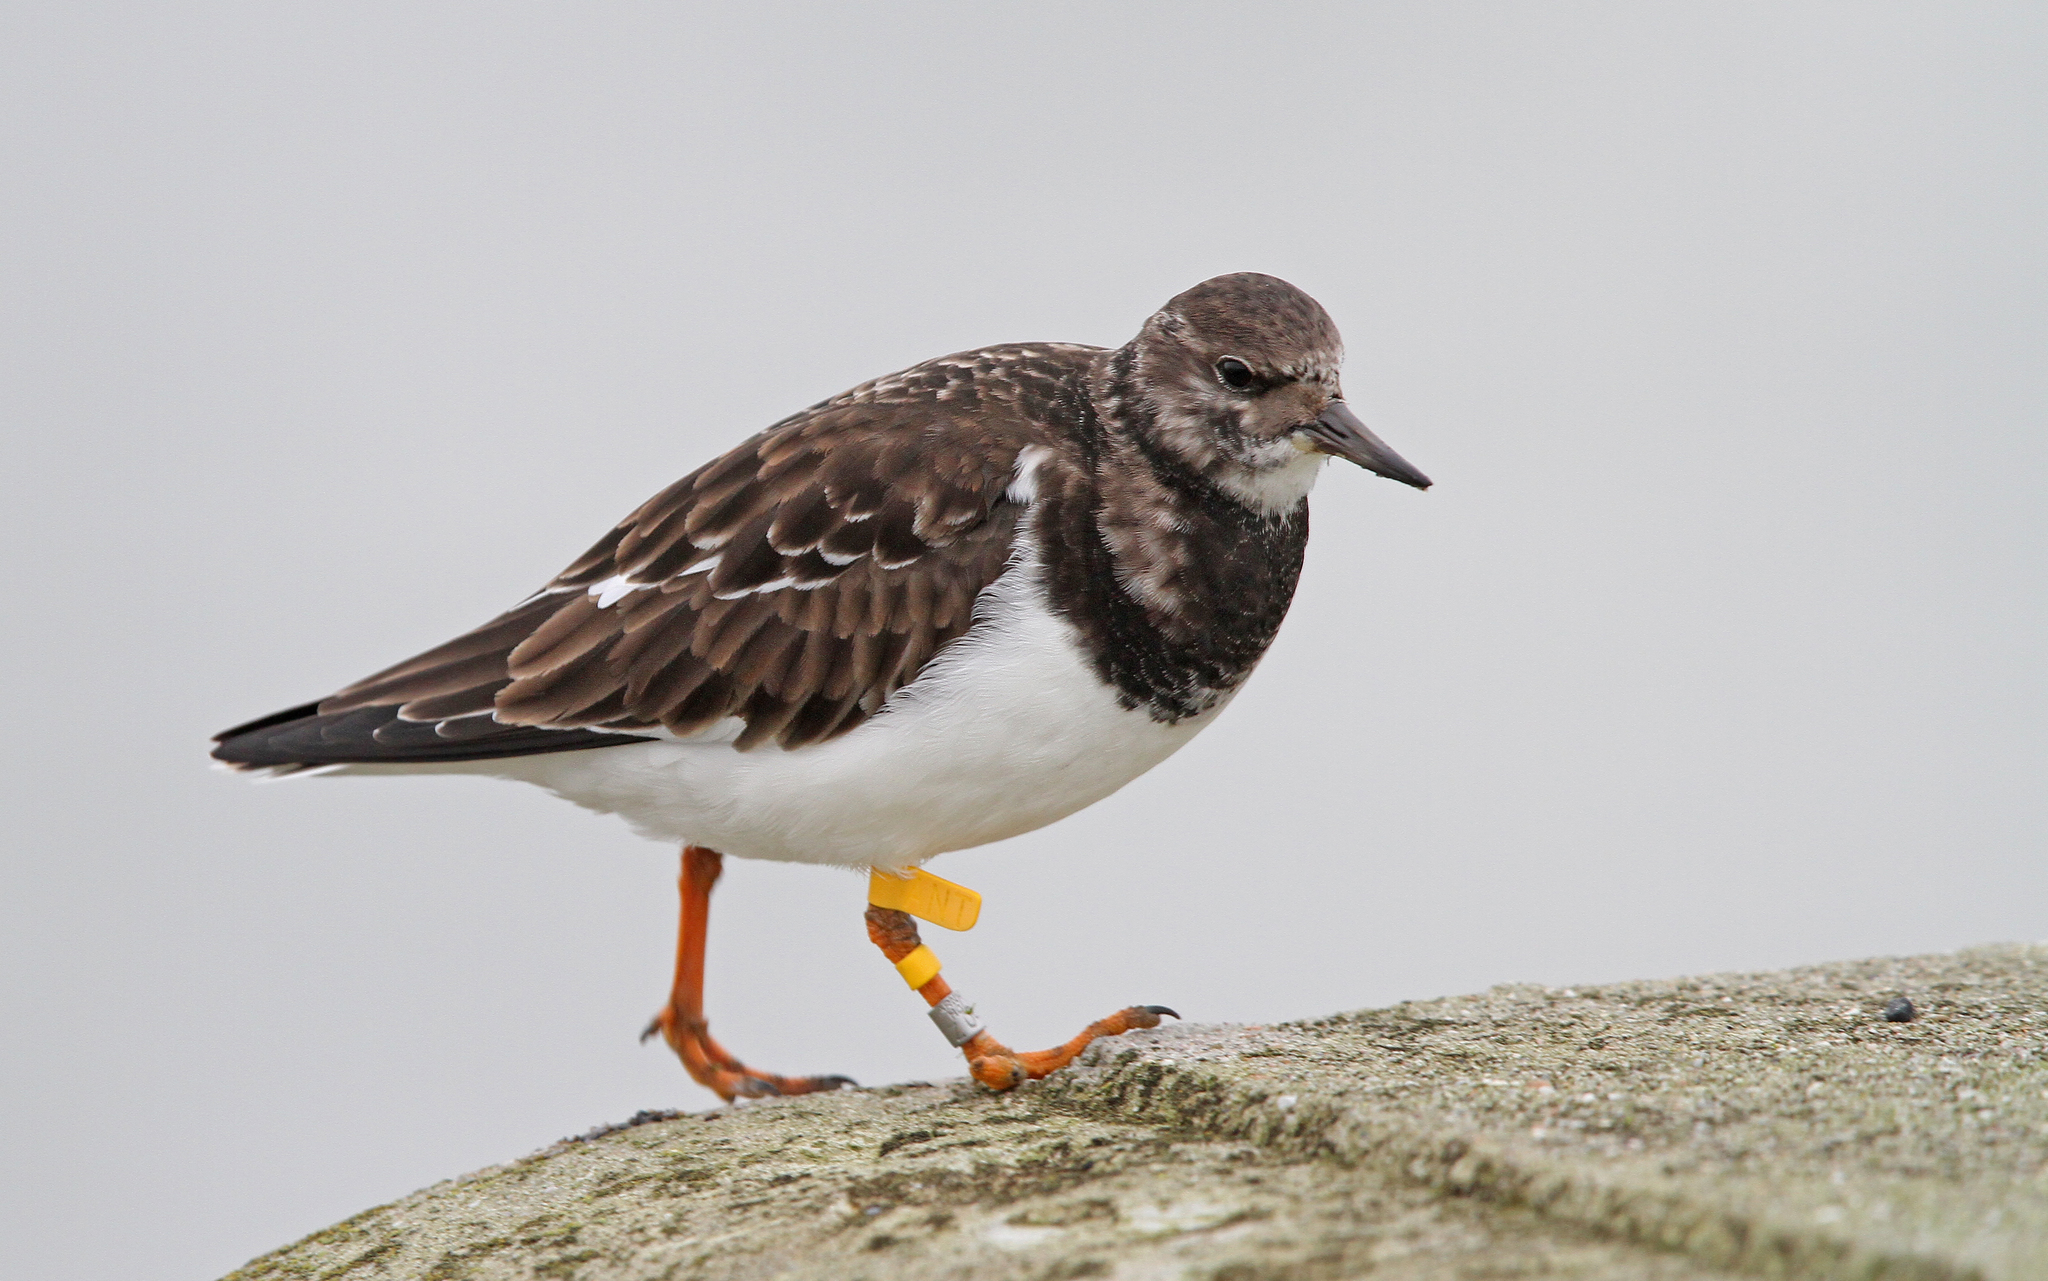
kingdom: Animalia
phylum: Chordata
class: Aves
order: Charadriiformes
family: Scolopacidae
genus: Arenaria
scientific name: Arenaria interpres
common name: Ruddy turnstone
